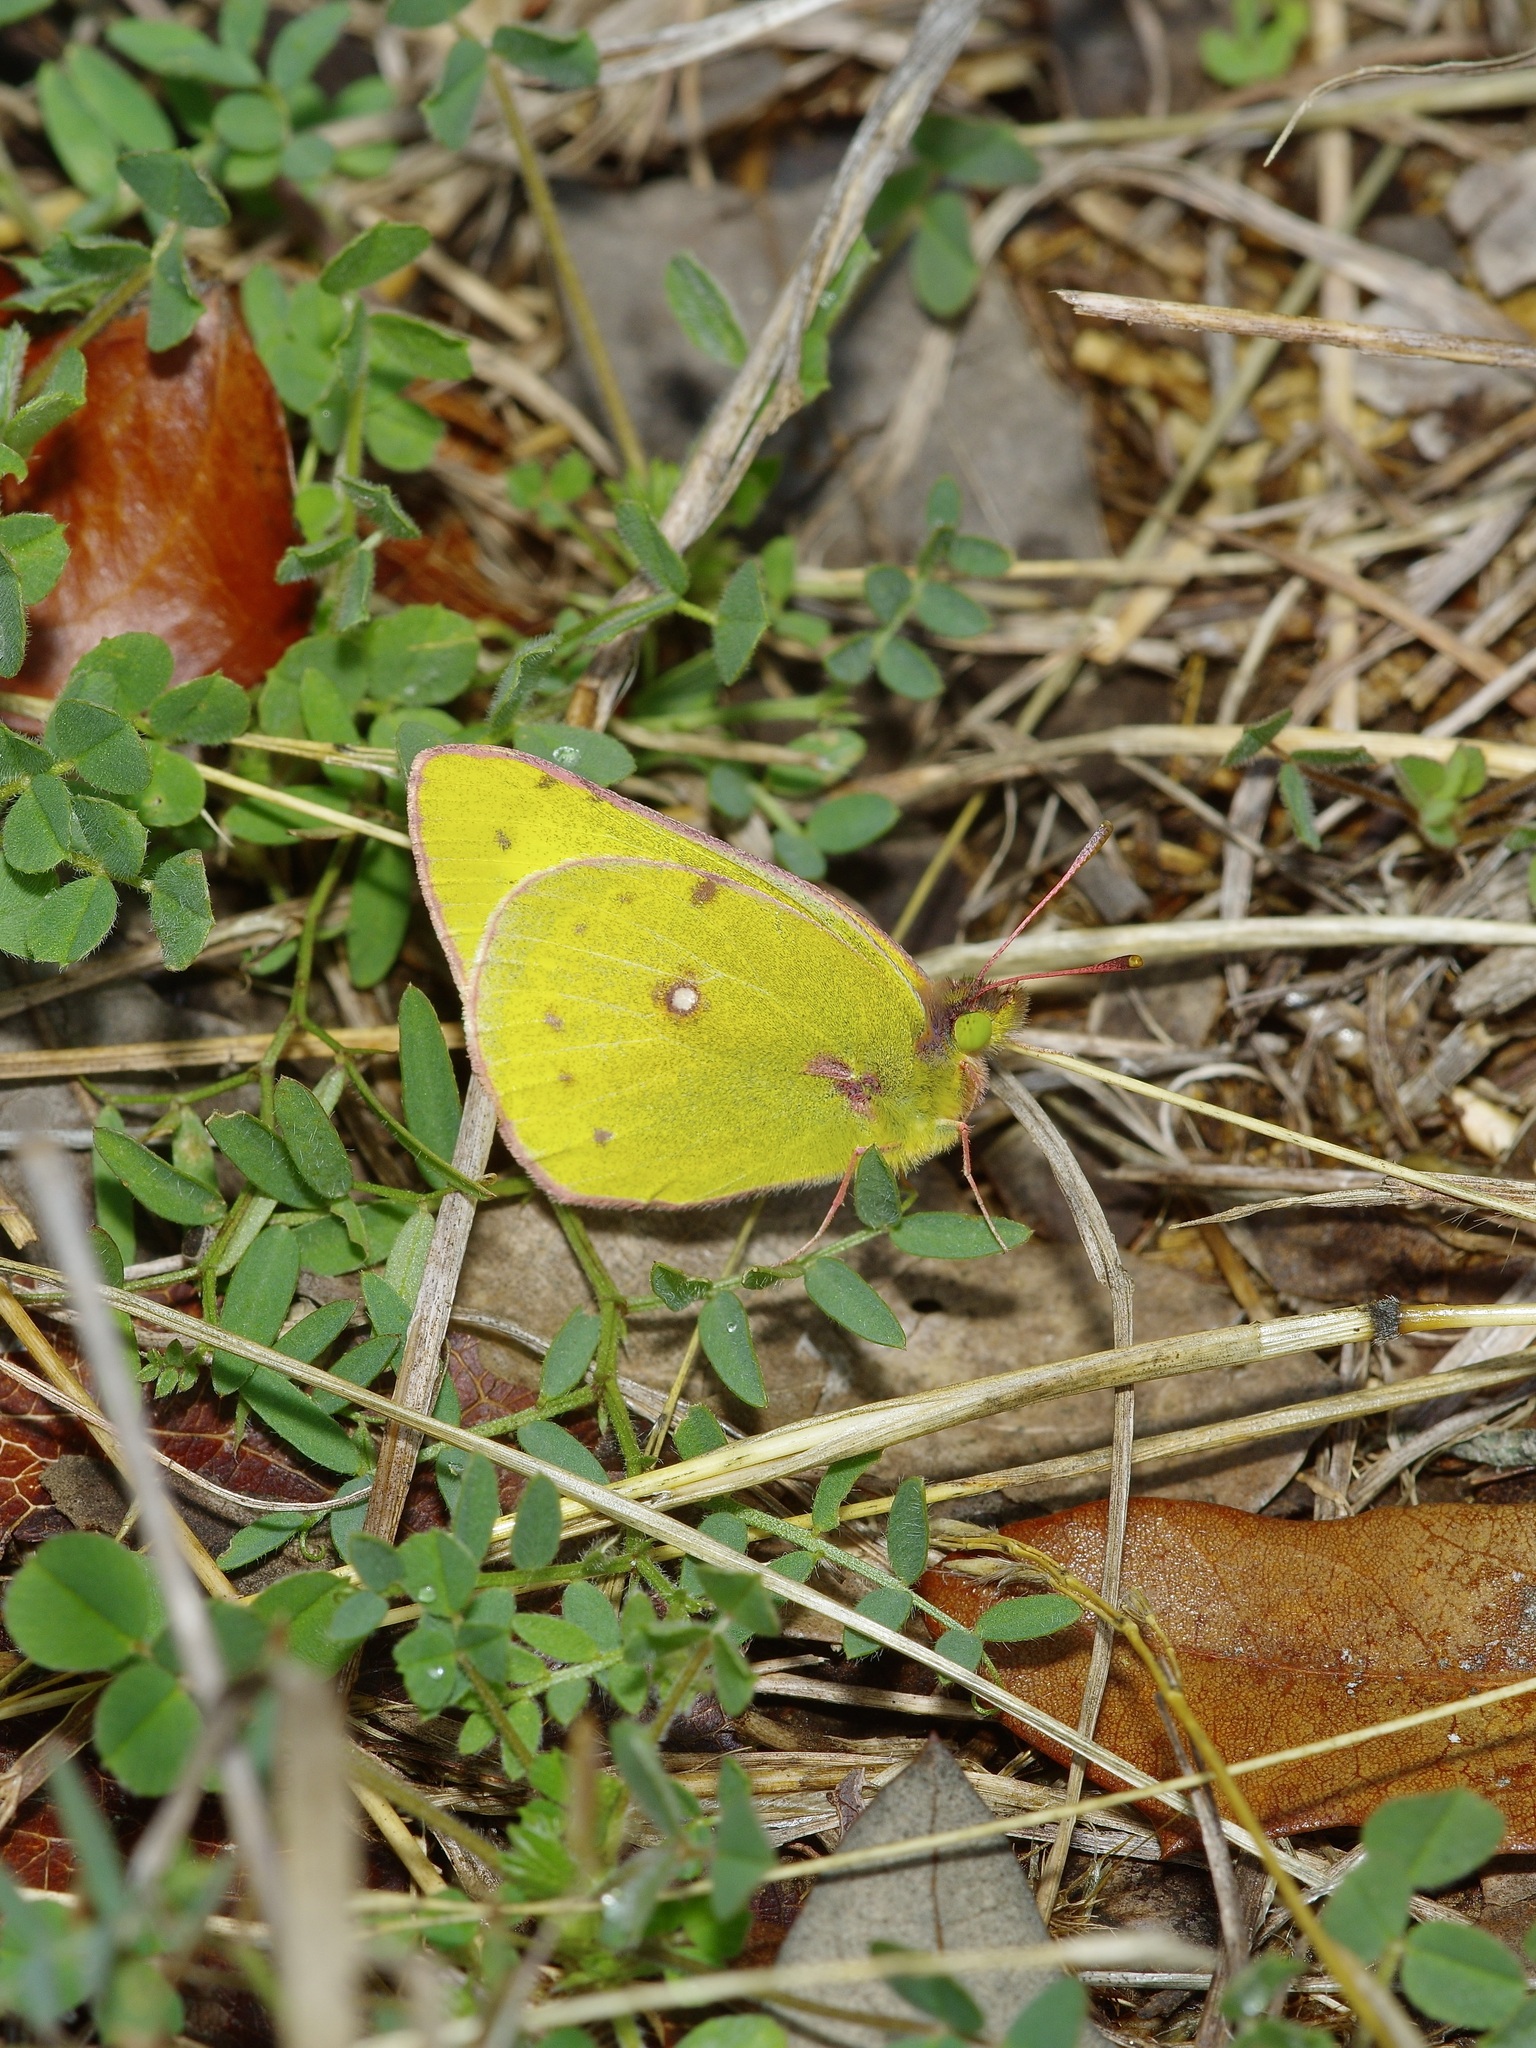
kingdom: Animalia
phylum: Arthropoda
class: Insecta
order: Lepidoptera
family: Pieridae
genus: Colias
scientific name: Colias eurytheme
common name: Alfalfa butterfly
